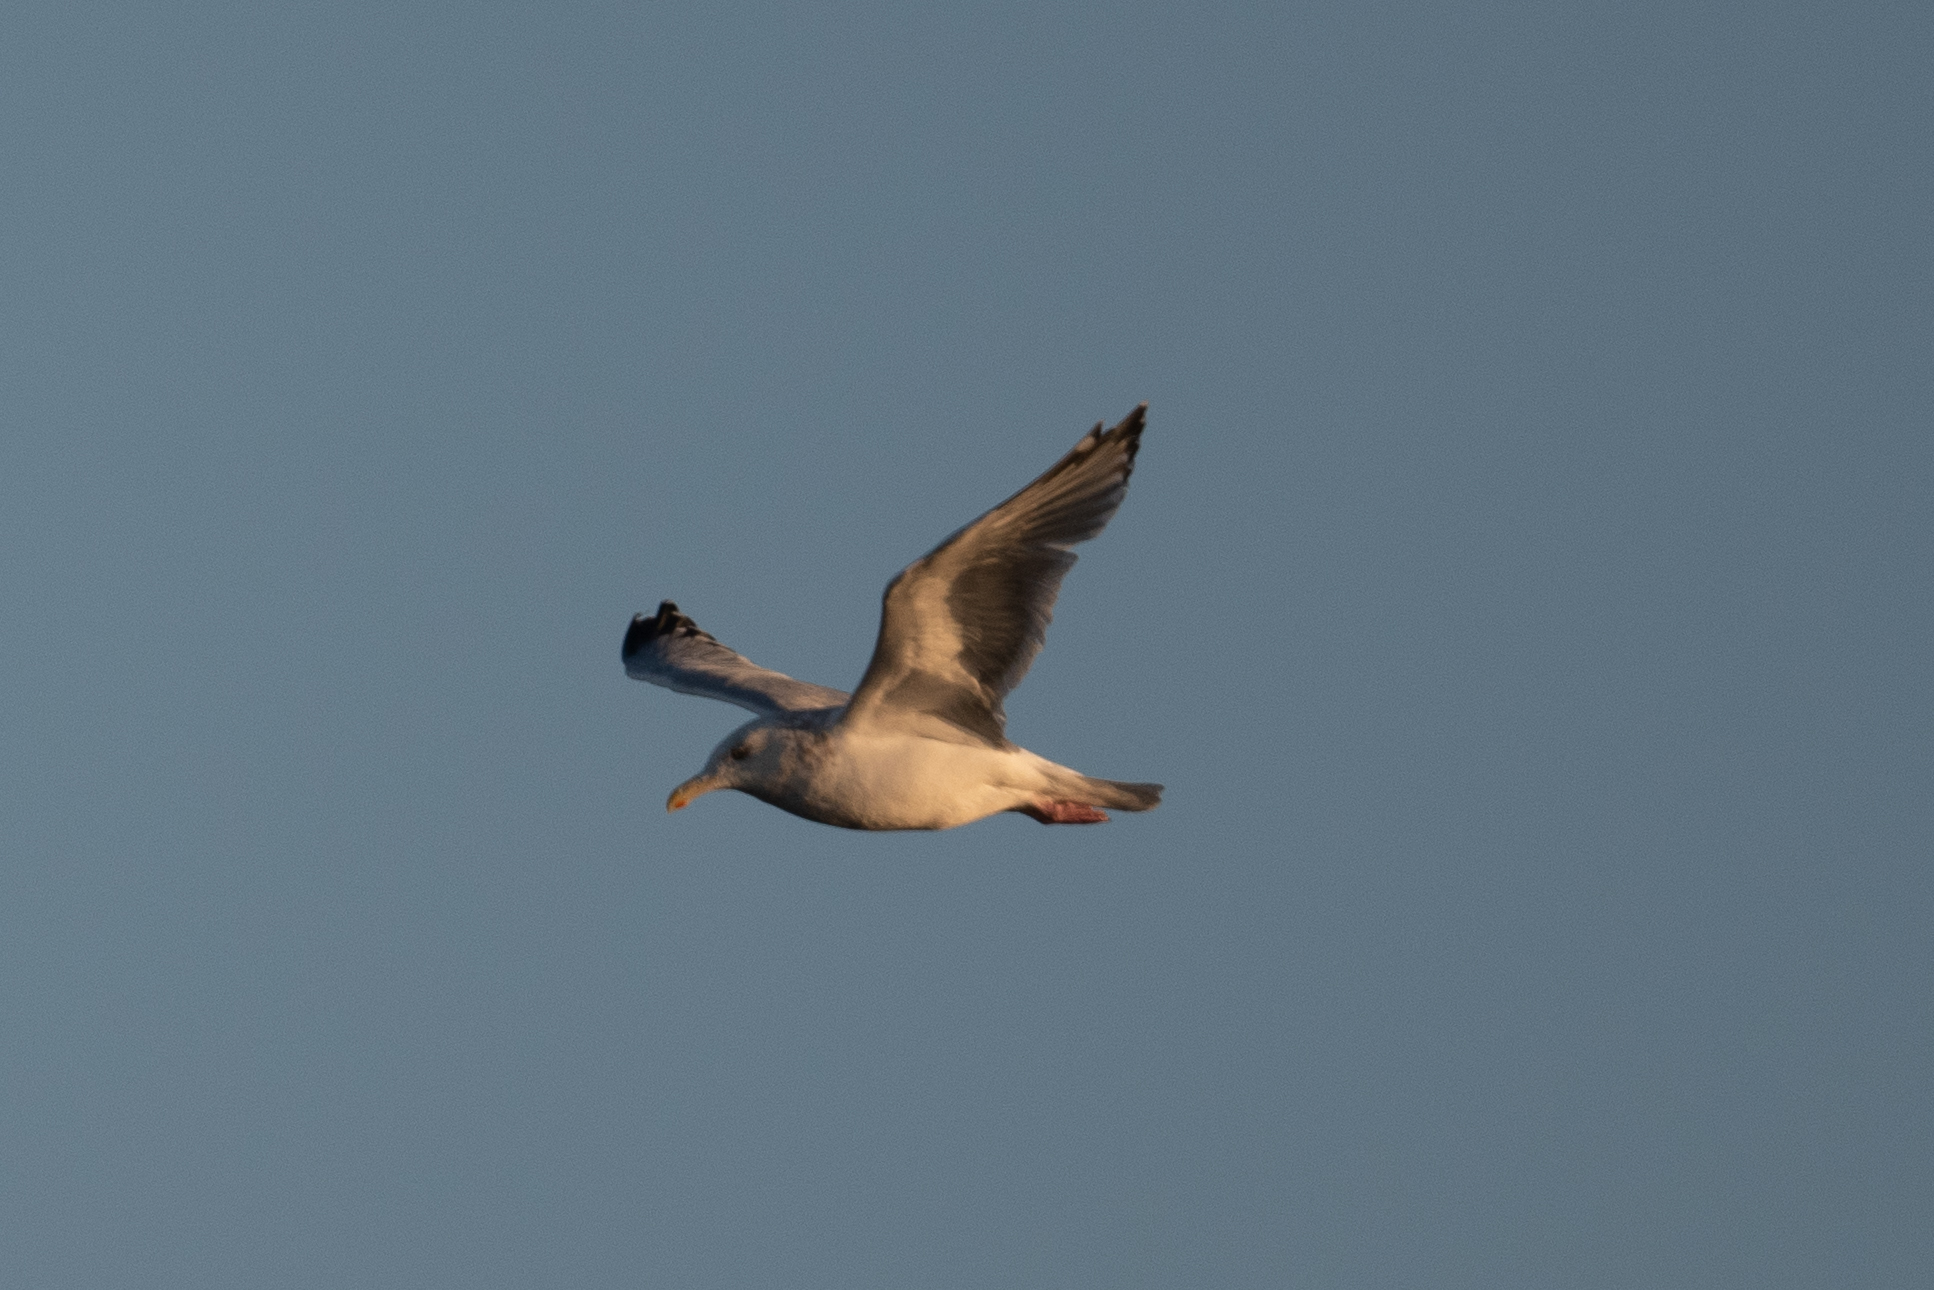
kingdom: Animalia
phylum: Chordata
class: Aves
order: Charadriiformes
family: Laridae
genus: Larus
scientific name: Larus argentatus
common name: Herring gull
